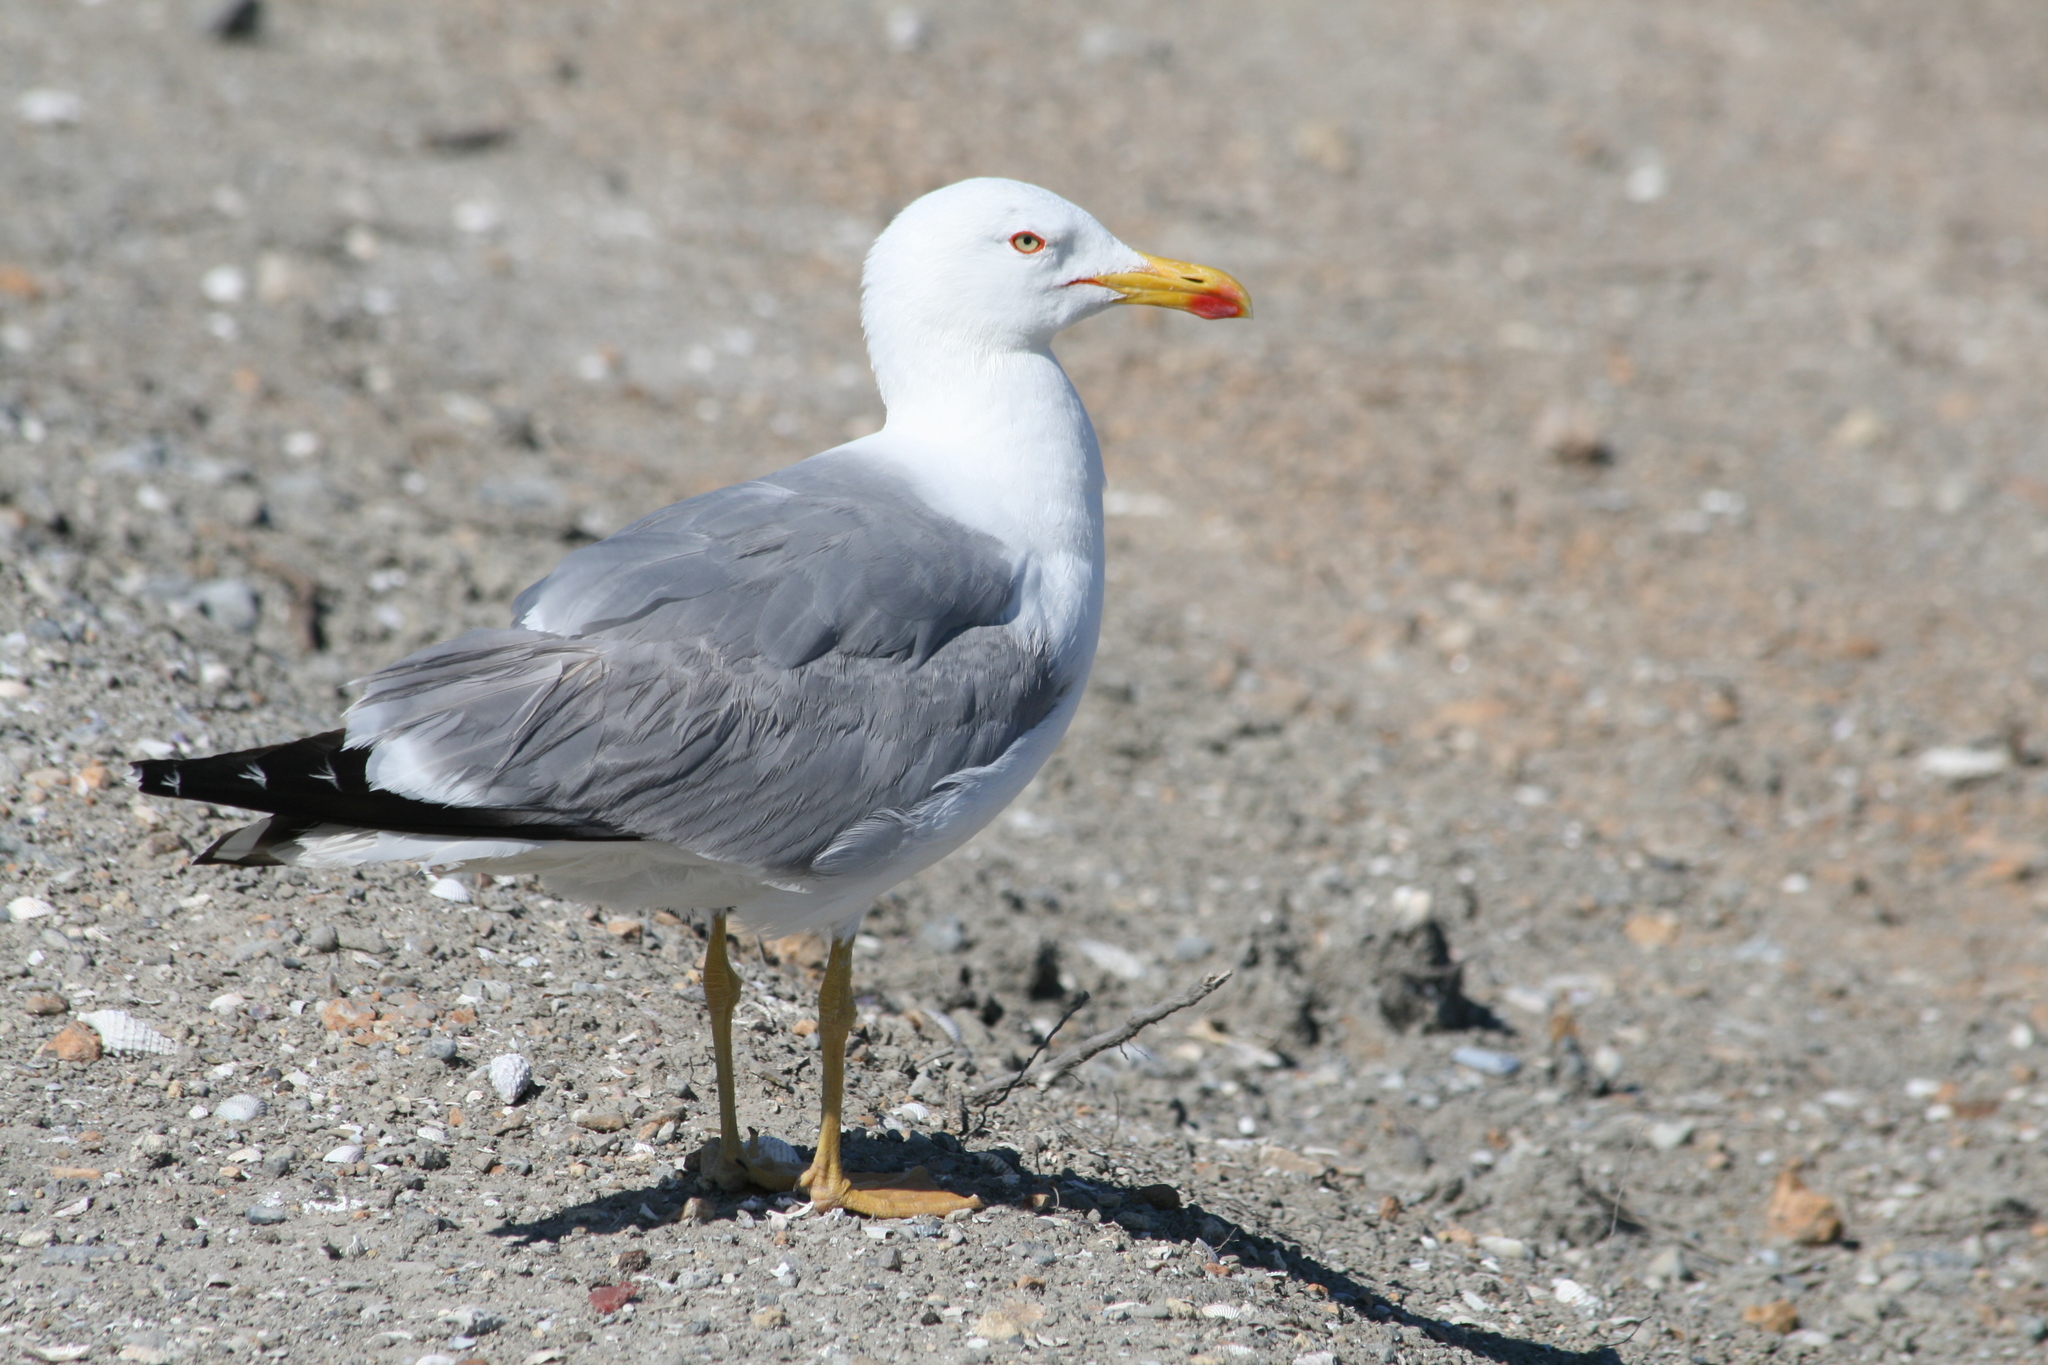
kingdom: Animalia
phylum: Chordata
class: Aves
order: Charadriiformes
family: Laridae
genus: Larus
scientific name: Larus michahellis
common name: Yellow-legged gull
